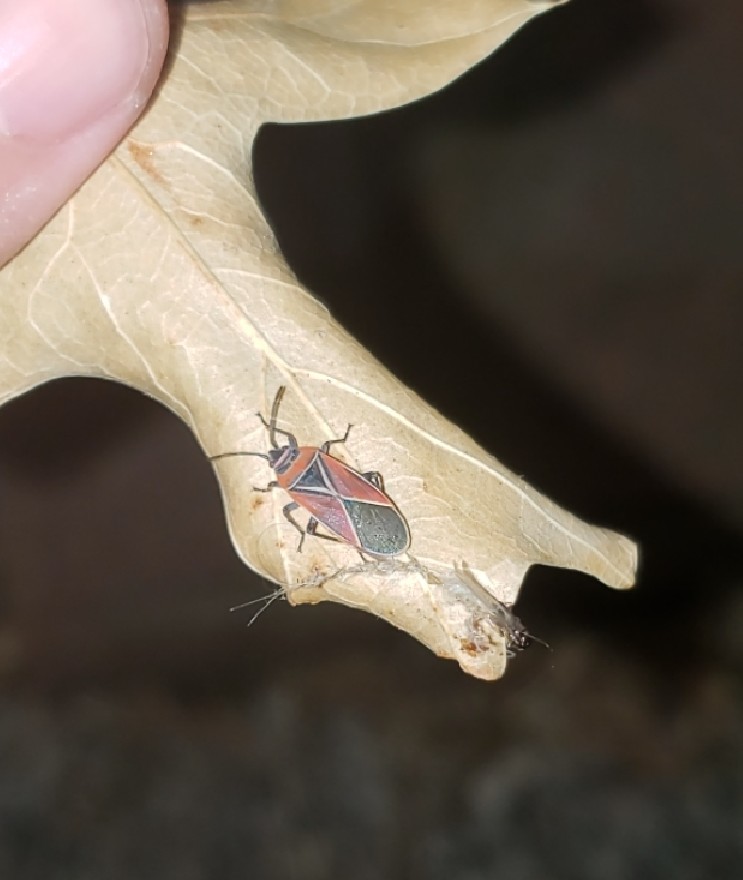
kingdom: Animalia
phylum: Arthropoda
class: Insecta
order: Hemiptera
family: Lygaeidae
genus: Neacoryphus
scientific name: Neacoryphus bicrucis
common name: Lygaeid bug
